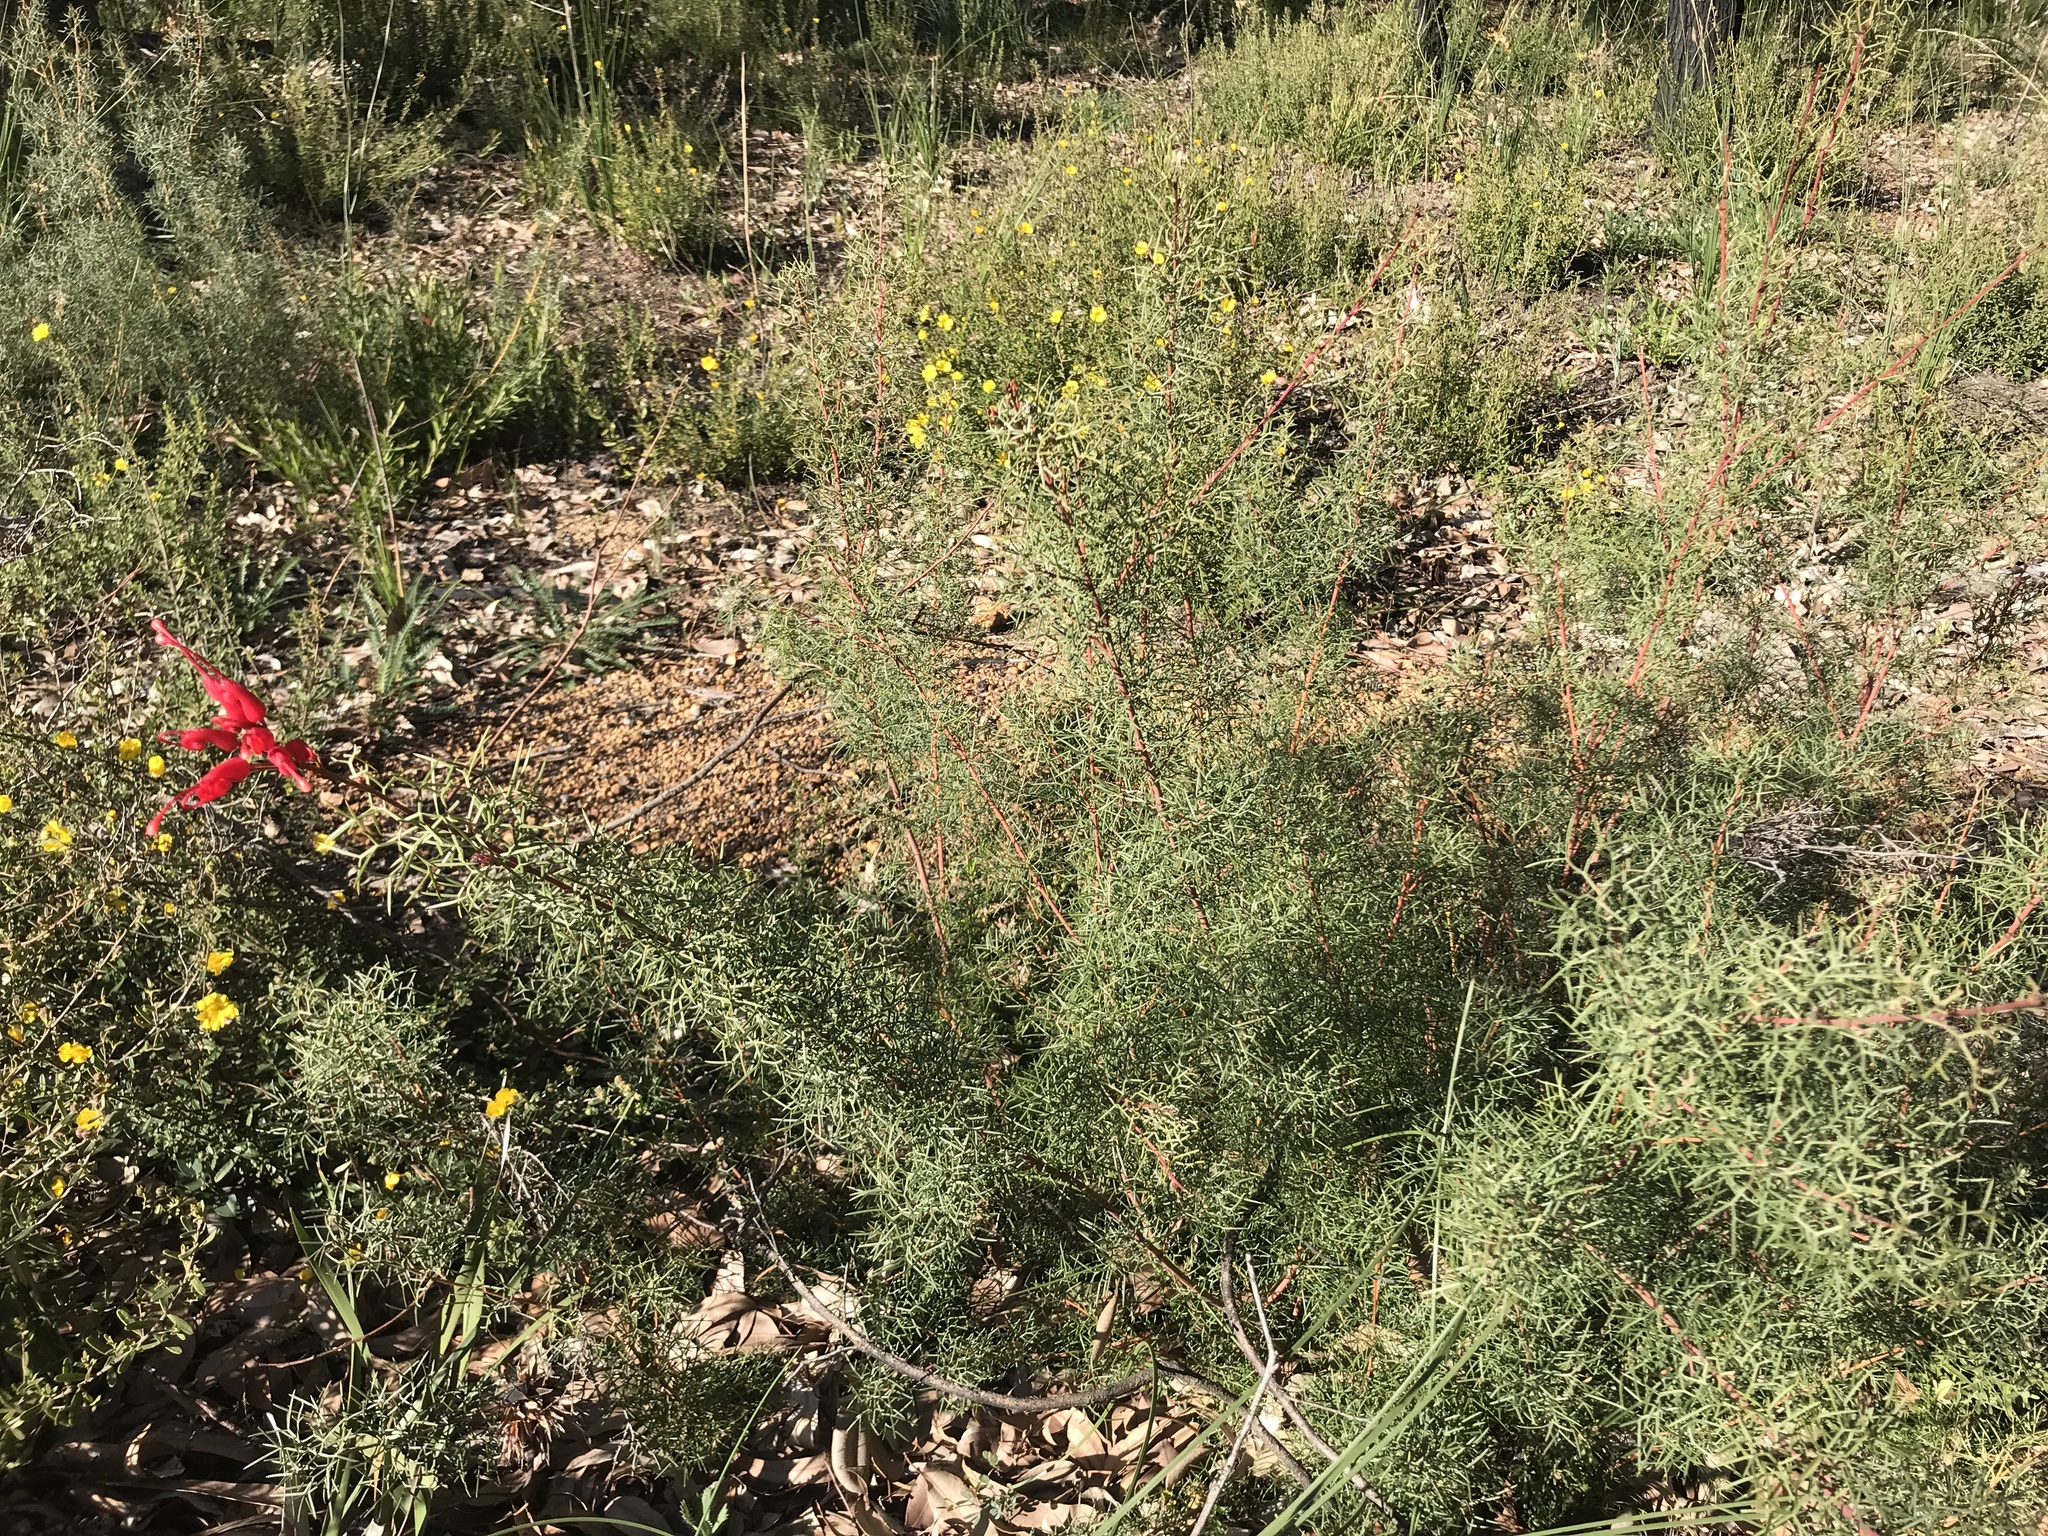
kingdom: Plantae
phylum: Tracheophyta
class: Magnoliopsida
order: Proteales
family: Proteaceae
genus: Grevillea
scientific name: Grevillea wilsonii
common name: Fire-wheel
